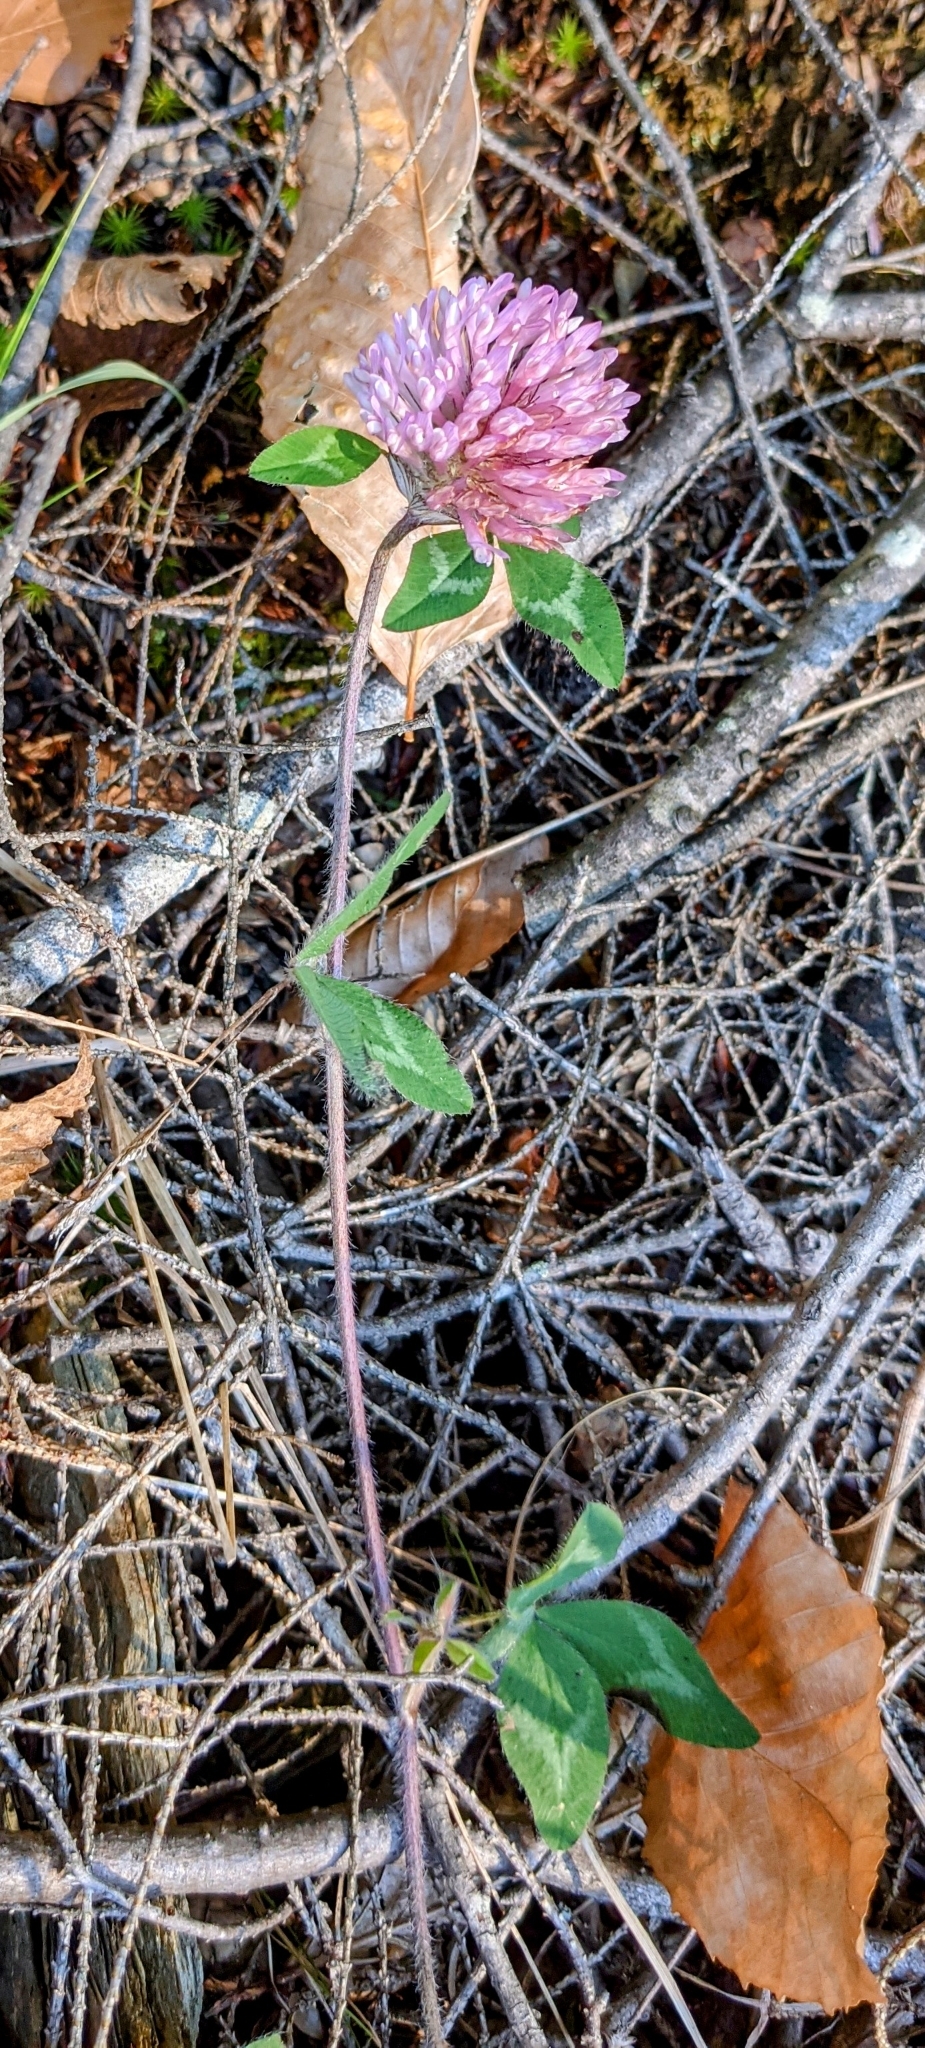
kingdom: Plantae
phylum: Tracheophyta
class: Magnoliopsida
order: Fabales
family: Fabaceae
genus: Trifolium
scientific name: Trifolium pratense
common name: Red clover
